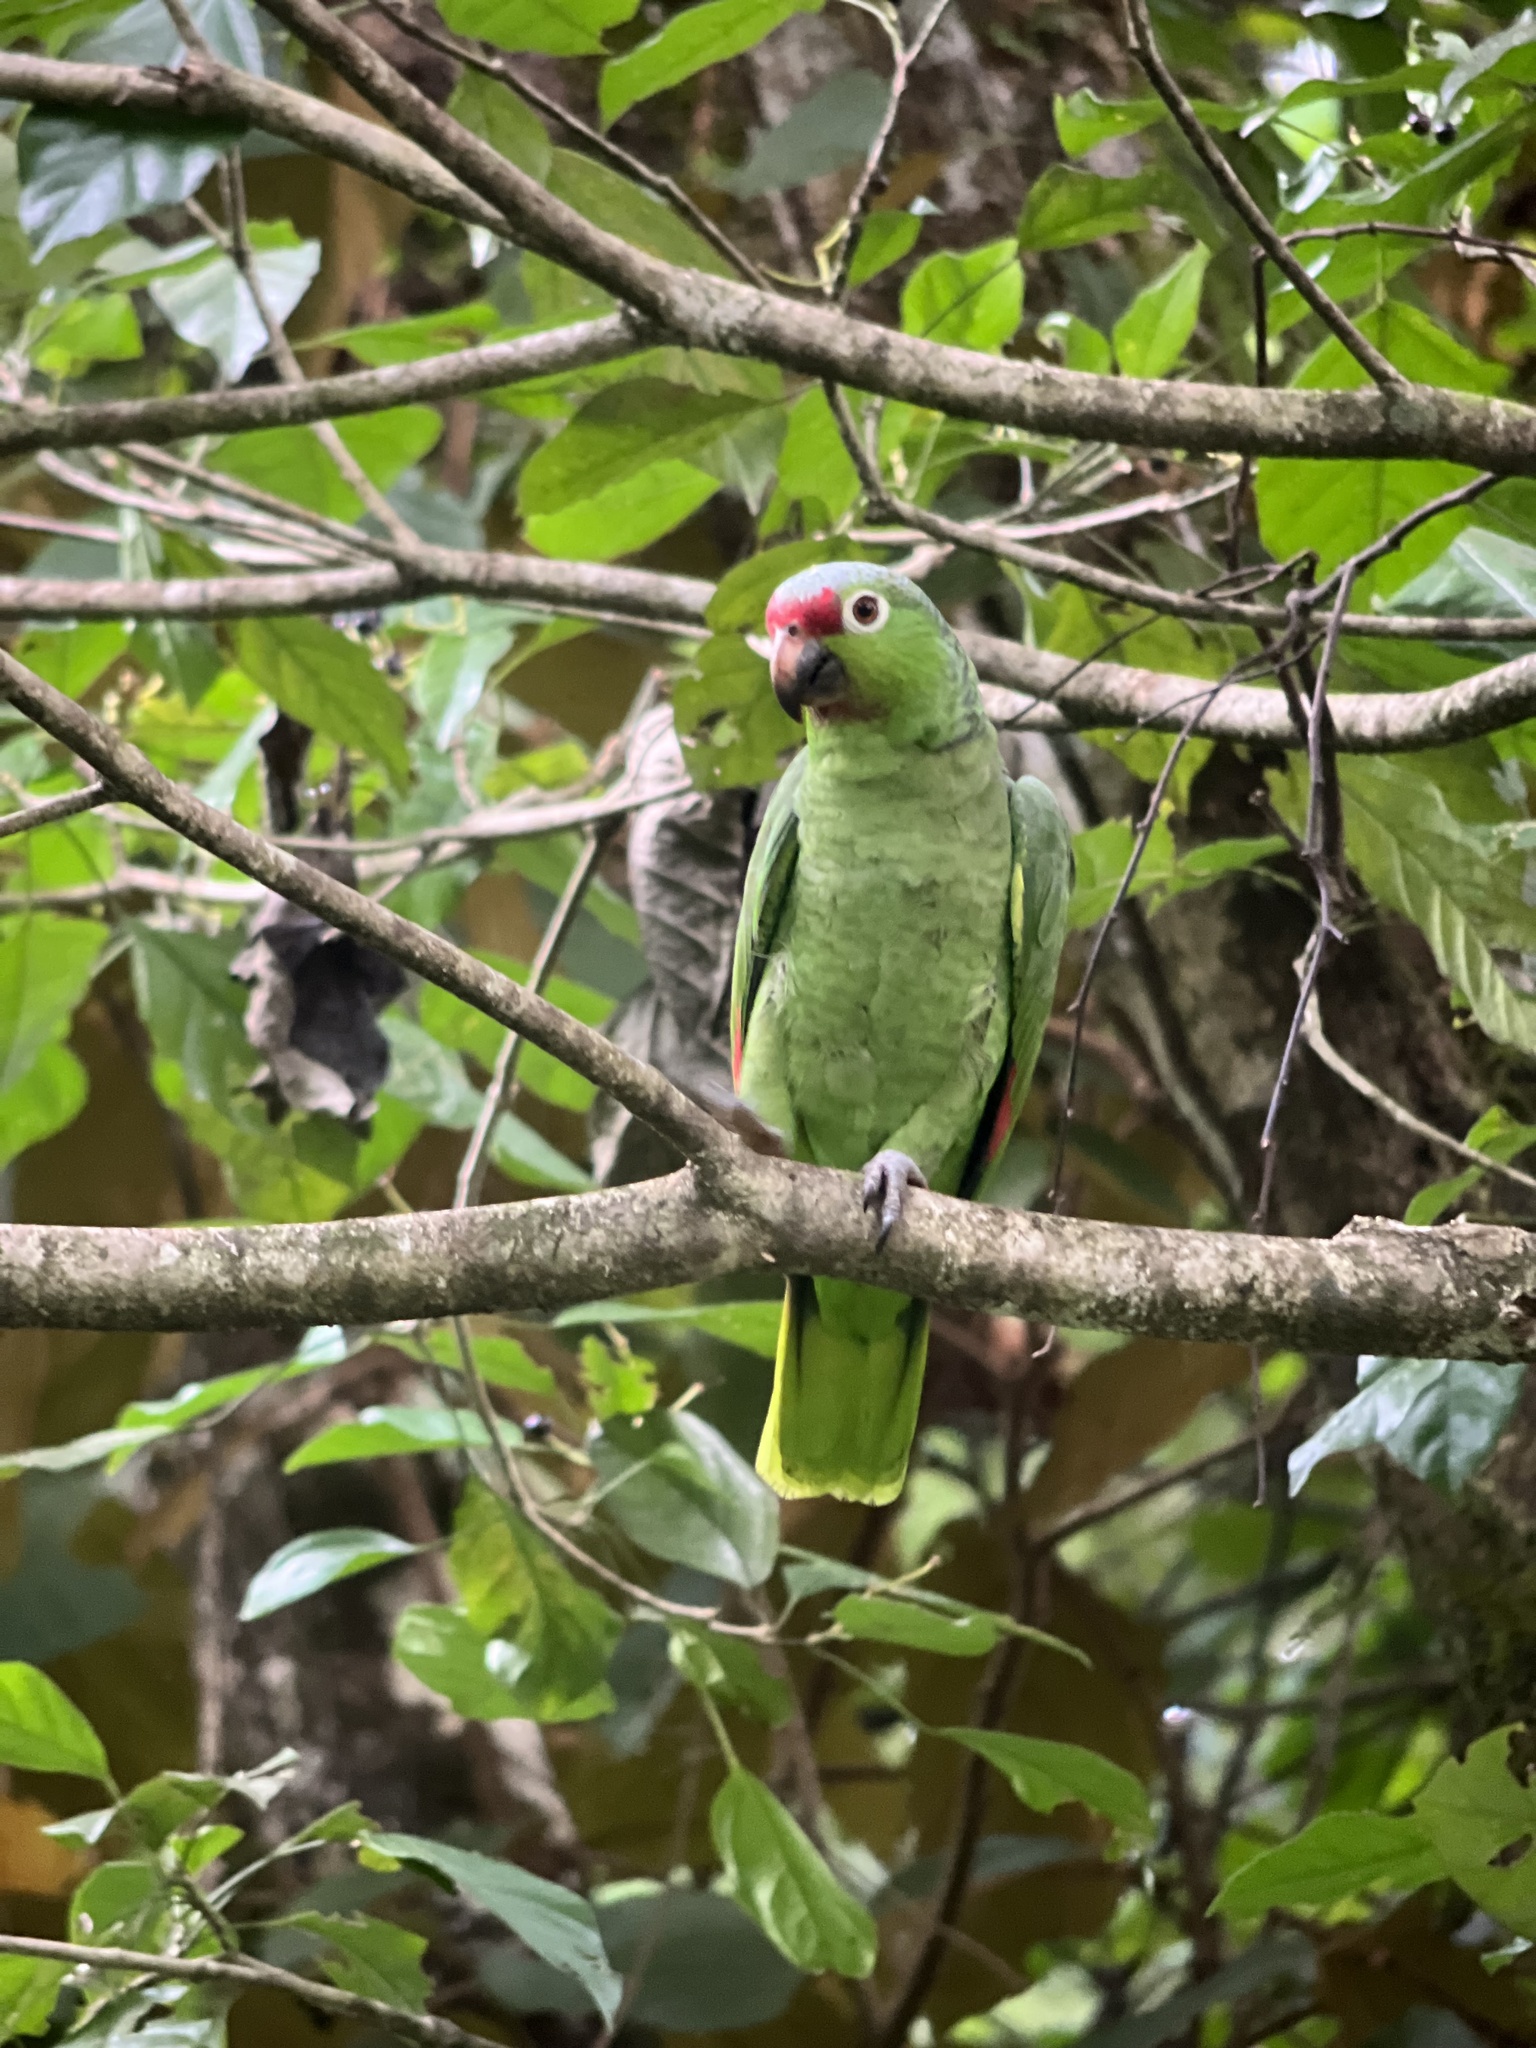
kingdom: Animalia
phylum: Chordata
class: Aves
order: Psittaciformes
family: Psittacidae
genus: Amazona
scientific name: Amazona autumnalis
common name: Red-lored amazon
